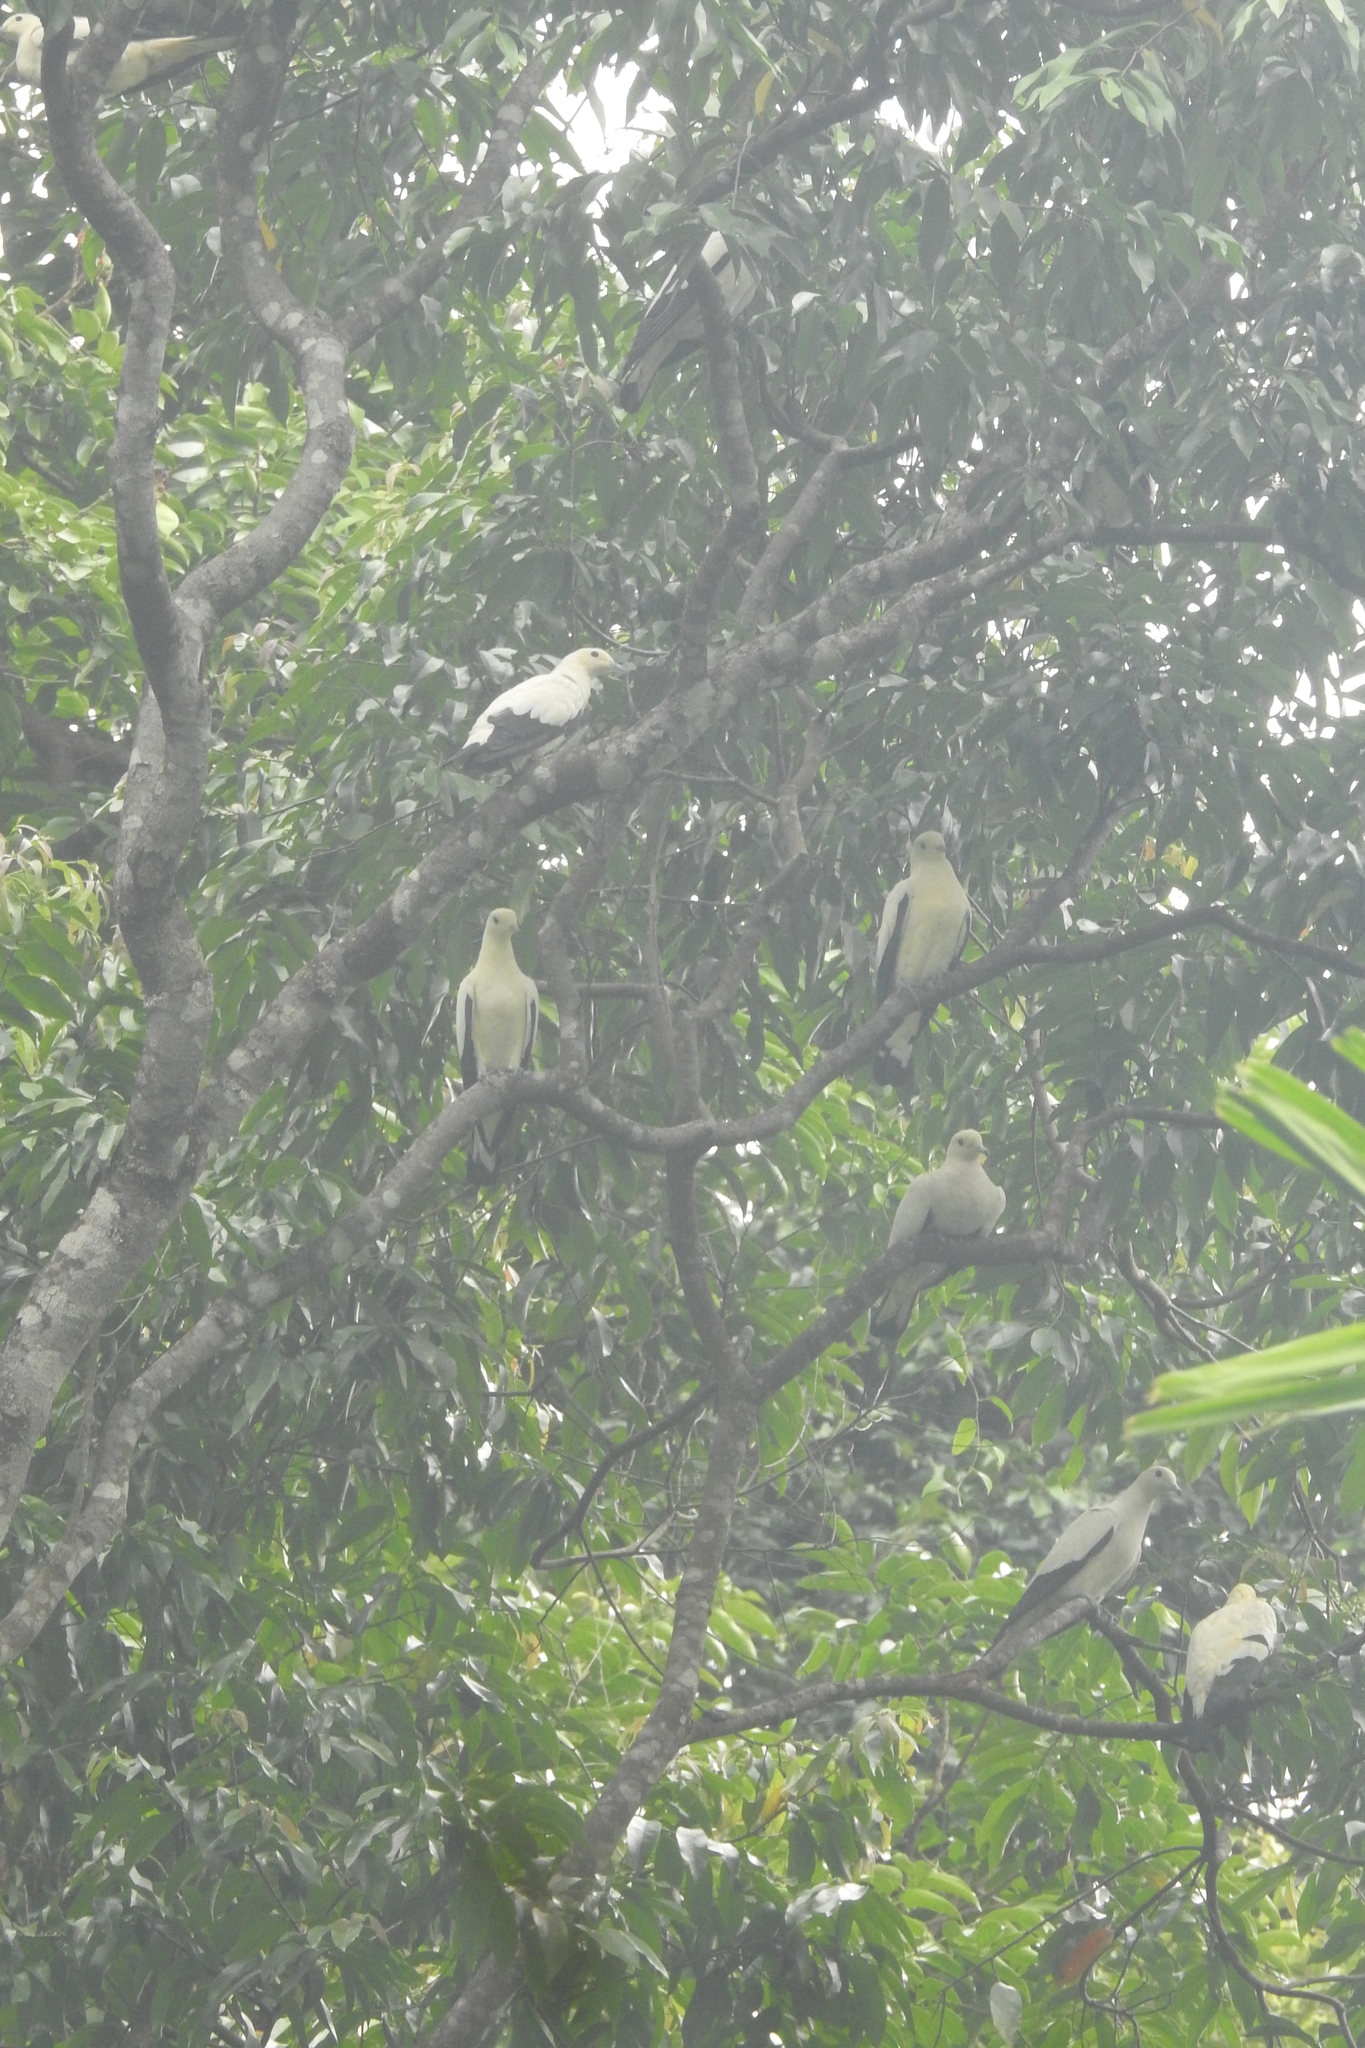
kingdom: Animalia
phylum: Chordata
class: Aves
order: Columbiformes
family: Columbidae
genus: Ducula
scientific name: Ducula bicolor
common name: Pied imperial pigeon
